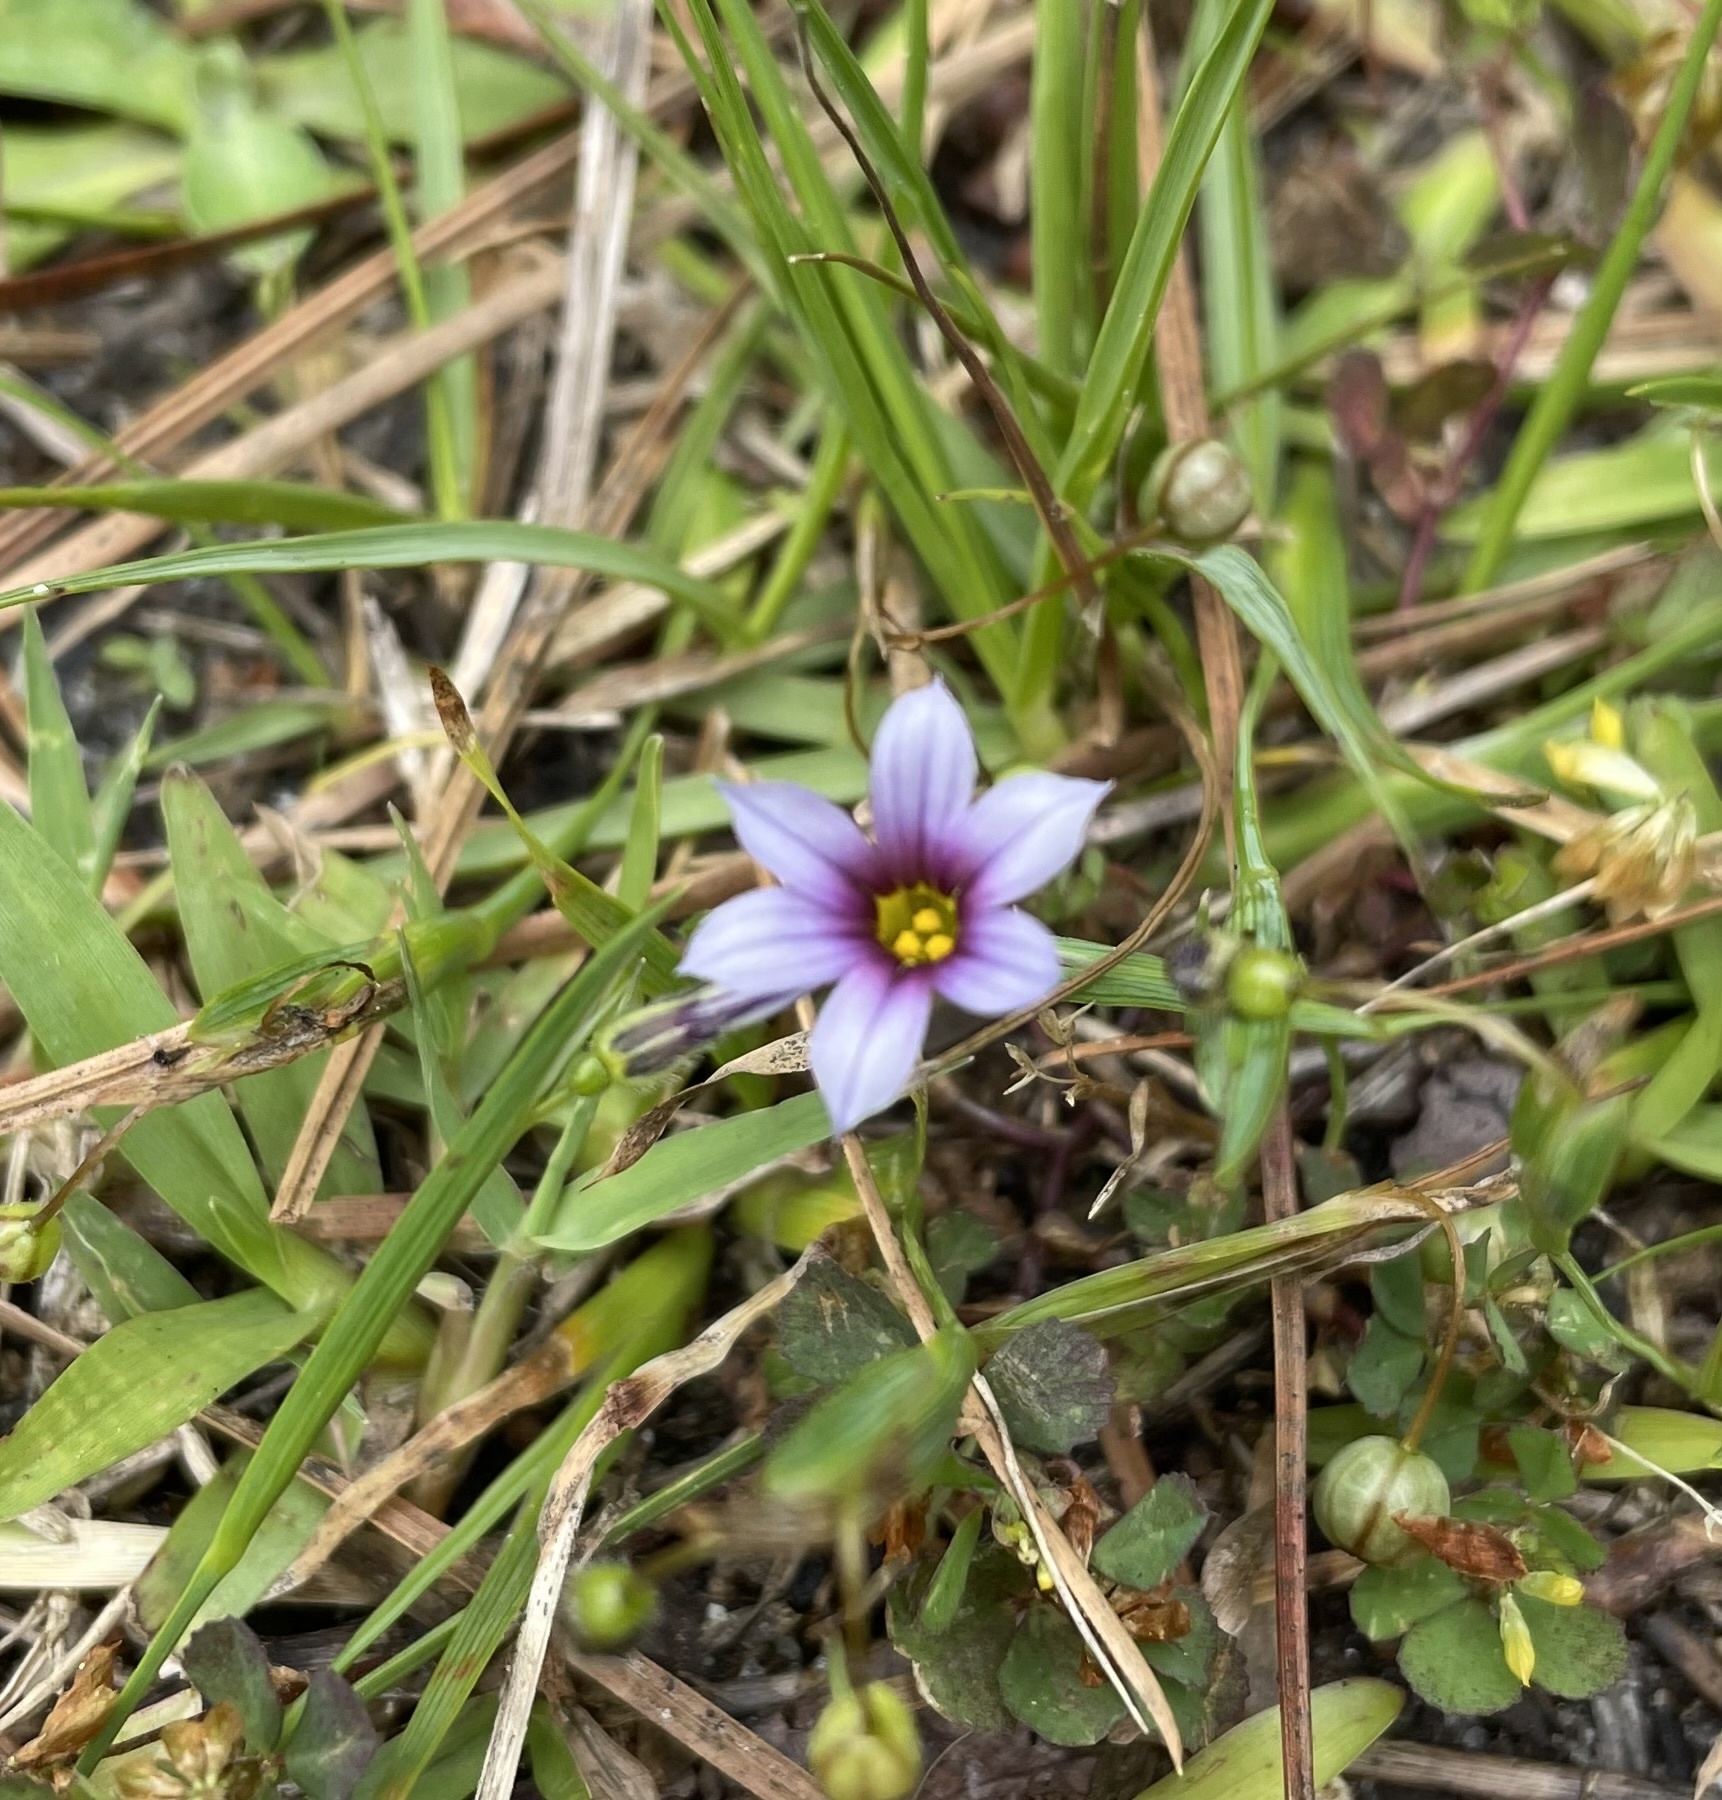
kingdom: Plantae
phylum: Tracheophyta
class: Liliopsida
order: Asparagales
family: Iridaceae
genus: Sisyrinchium
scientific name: Sisyrinchium micranthum
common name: Bermuda pigroot
